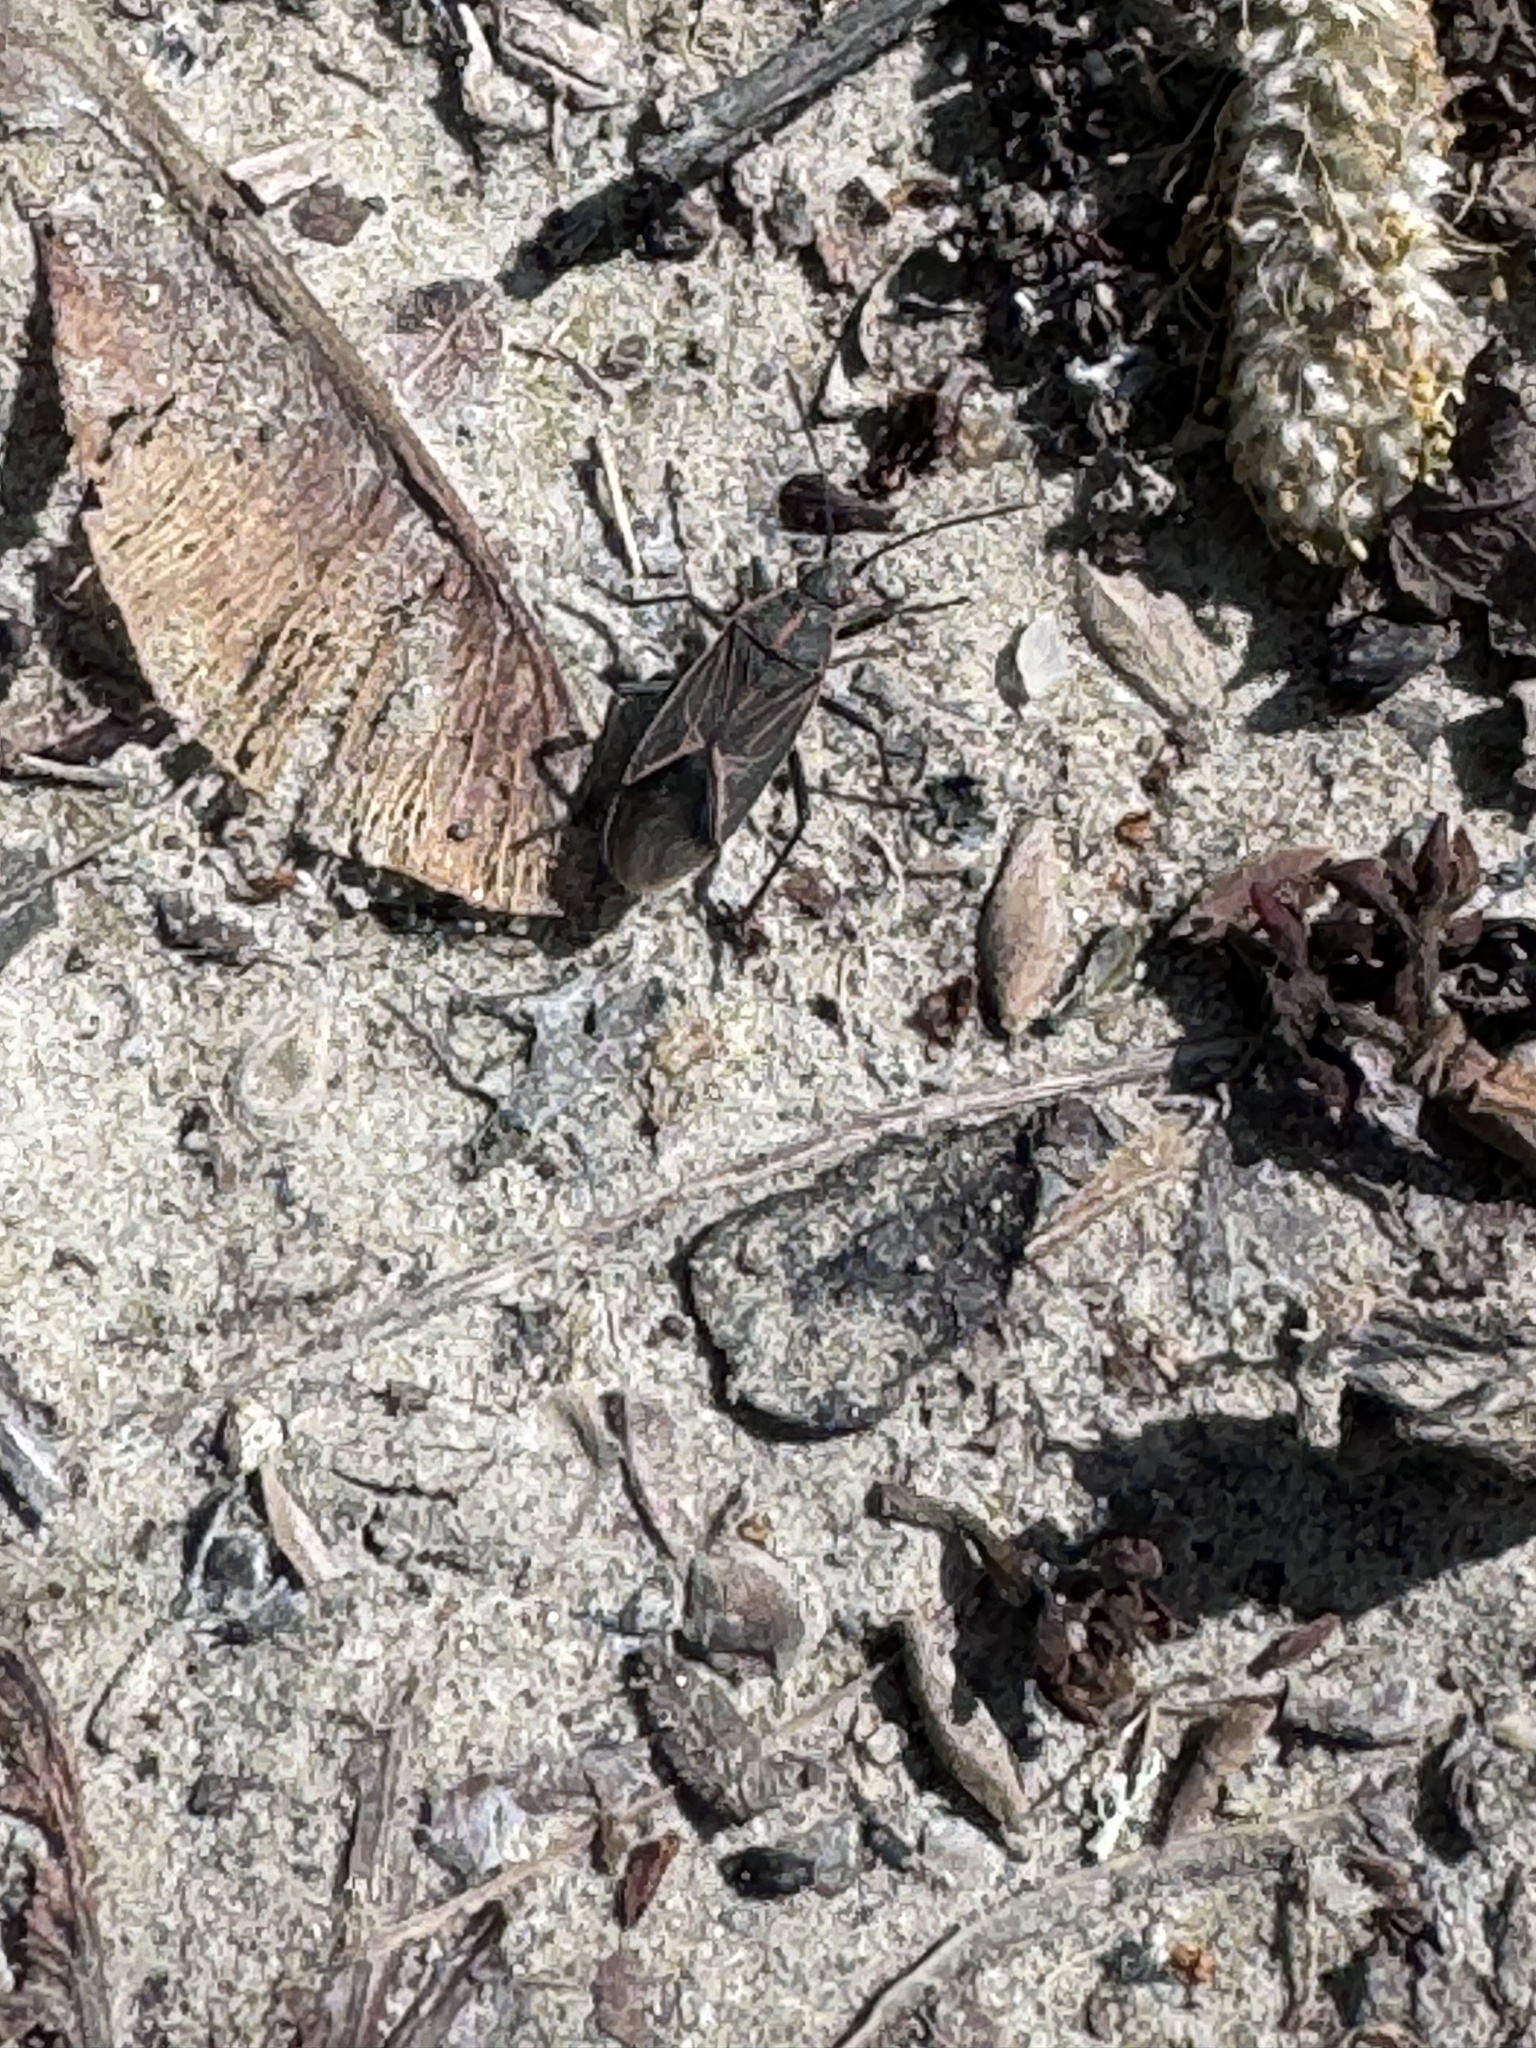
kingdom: Animalia
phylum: Arthropoda
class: Insecta
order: Hemiptera
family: Rhopalidae
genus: Boisea
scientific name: Boisea rubrolineata
